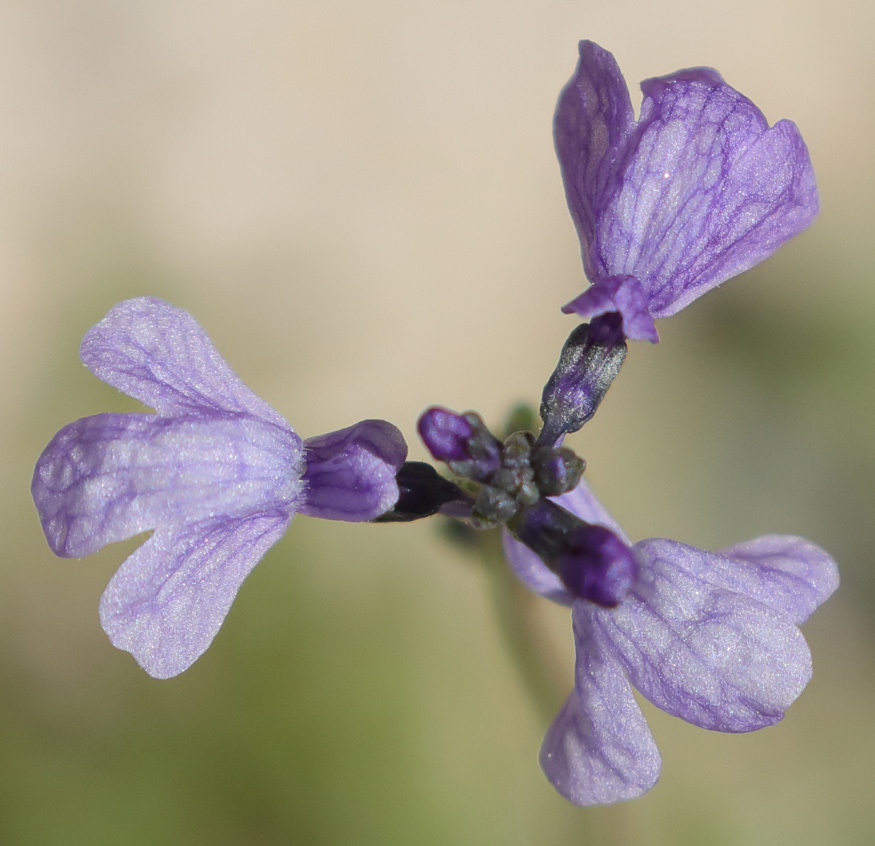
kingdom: Plantae
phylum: Tracheophyta
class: Magnoliopsida
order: Lamiales
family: Plantaginaceae
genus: Nuttallanthus
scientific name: Nuttallanthus texanus
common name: Texas toadflax
